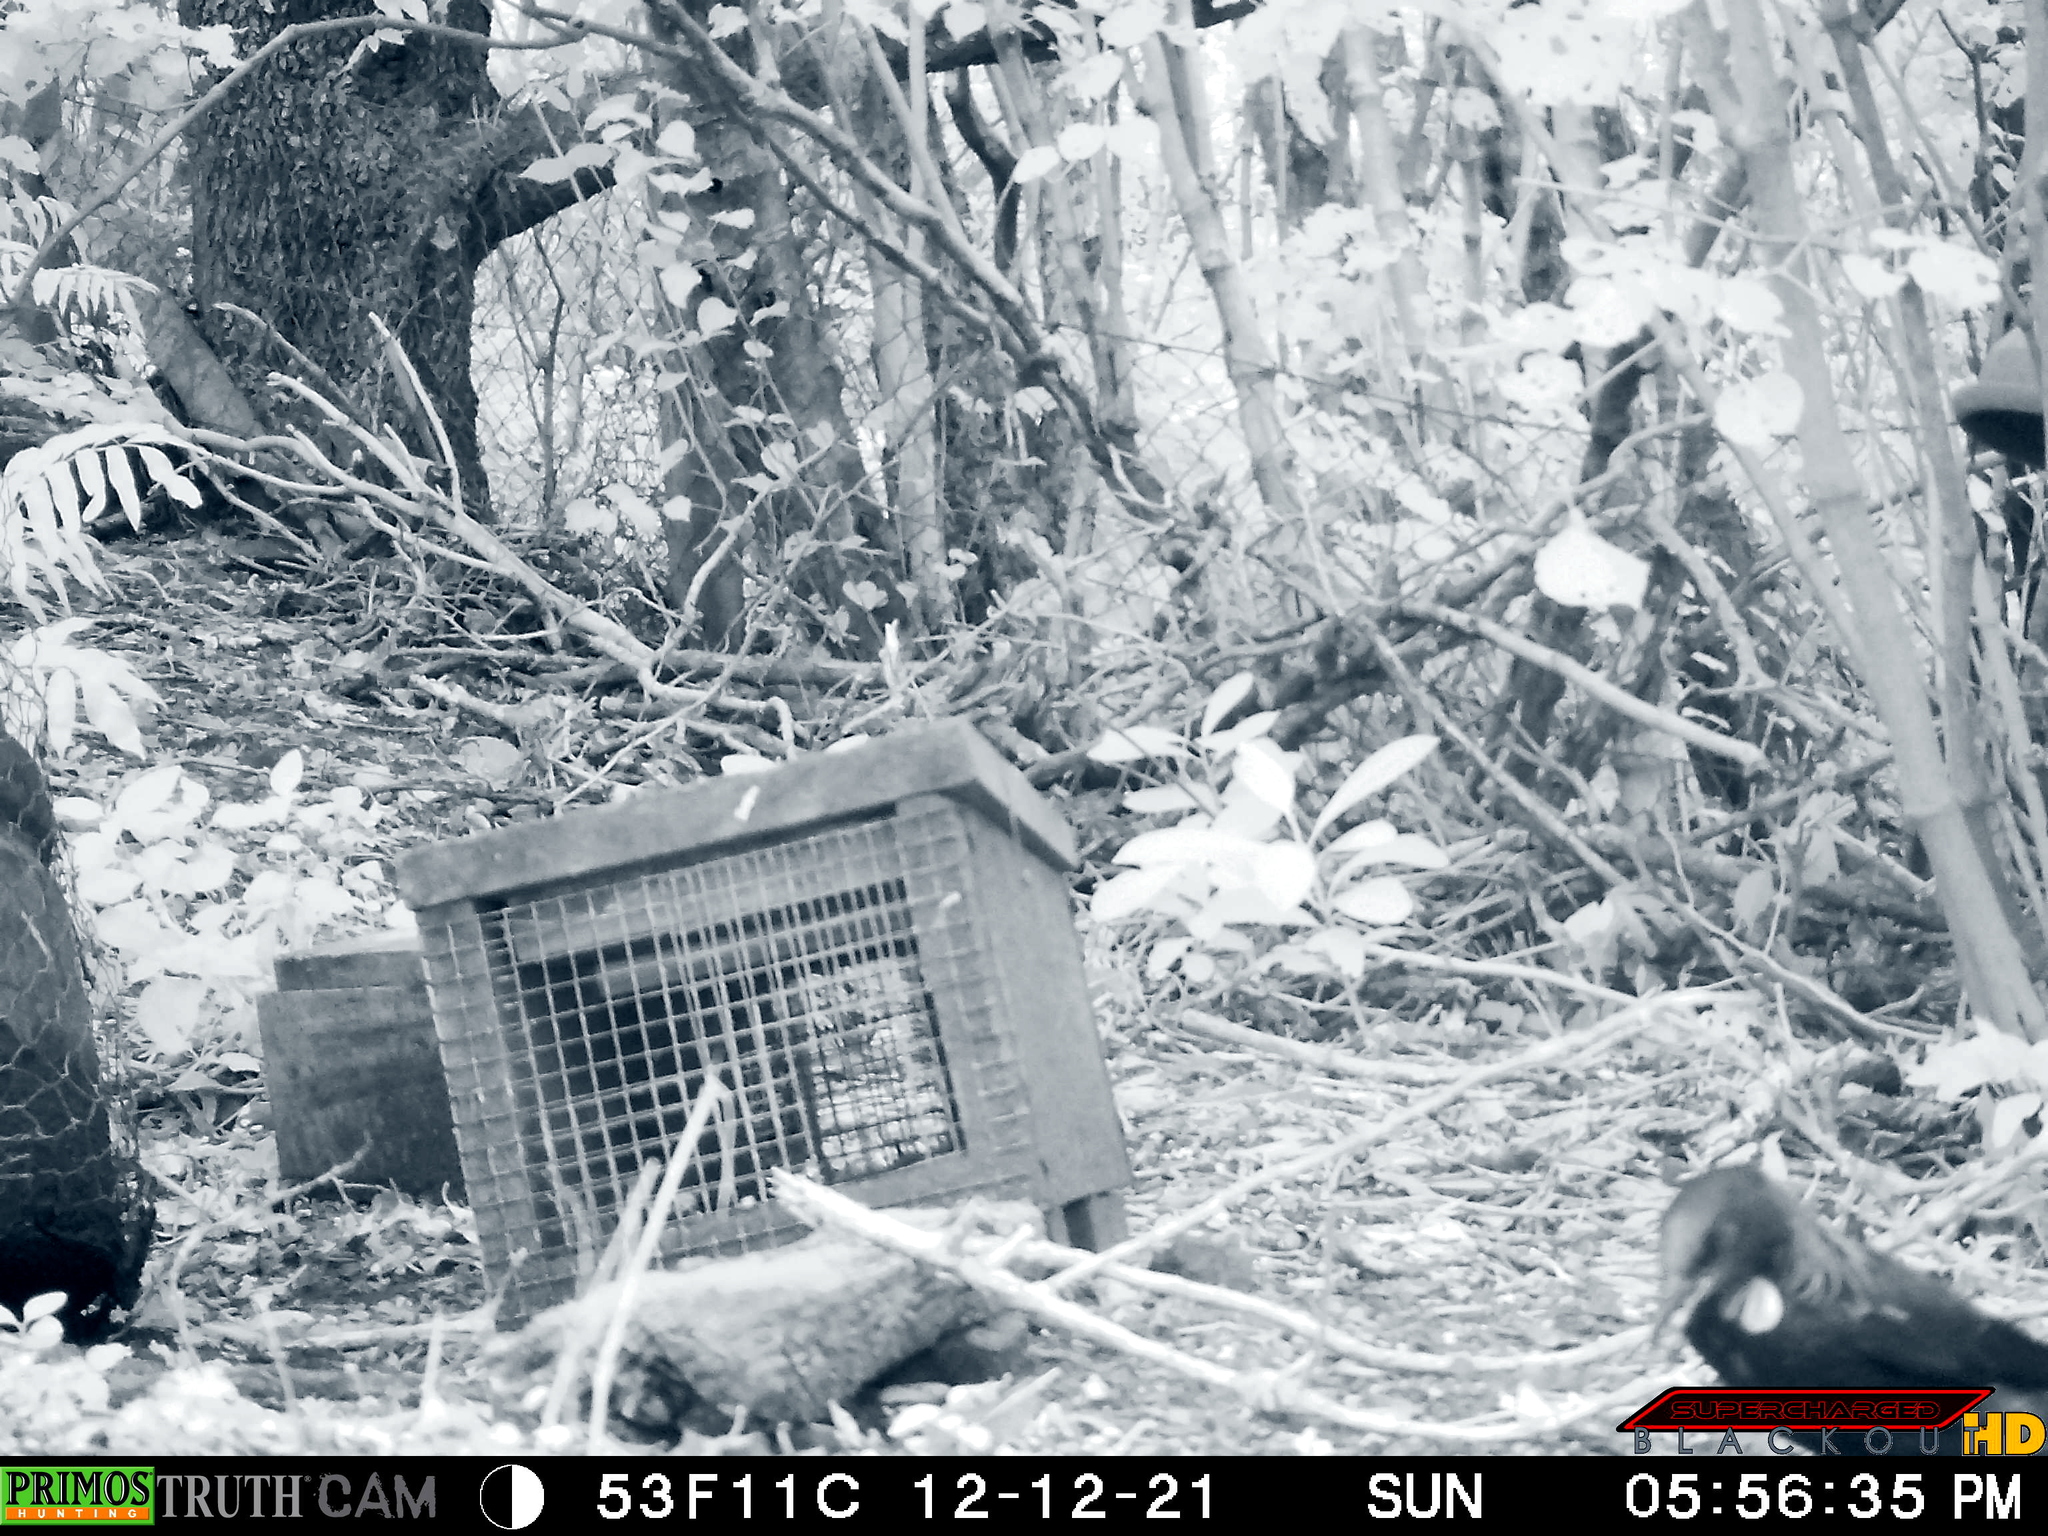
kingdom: Animalia
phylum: Chordata
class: Aves
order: Passeriformes
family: Meliphagidae
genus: Prosthemadera
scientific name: Prosthemadera novaeseelandiae
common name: Tui
